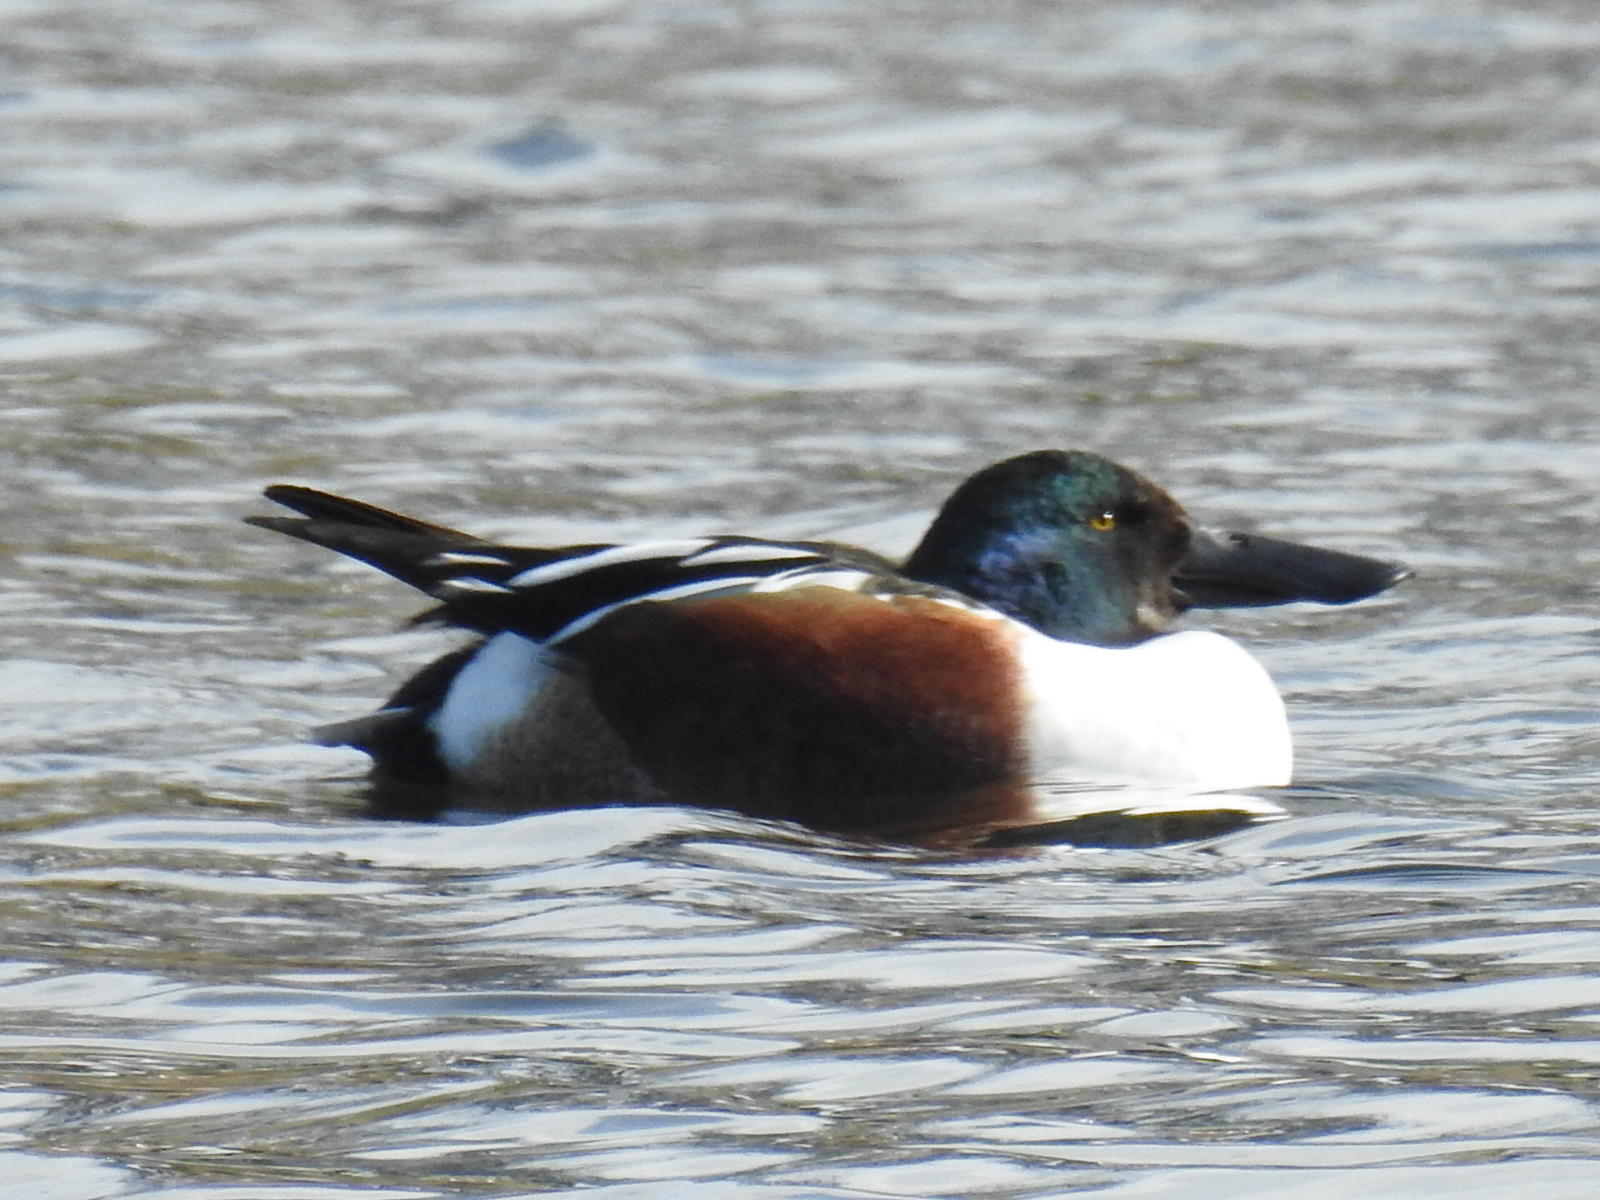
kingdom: Animalia
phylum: Chordata
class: Aves
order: Anseriformes
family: Anatidae
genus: Spatula
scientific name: Spatula clypeata
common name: Northern shoveler
